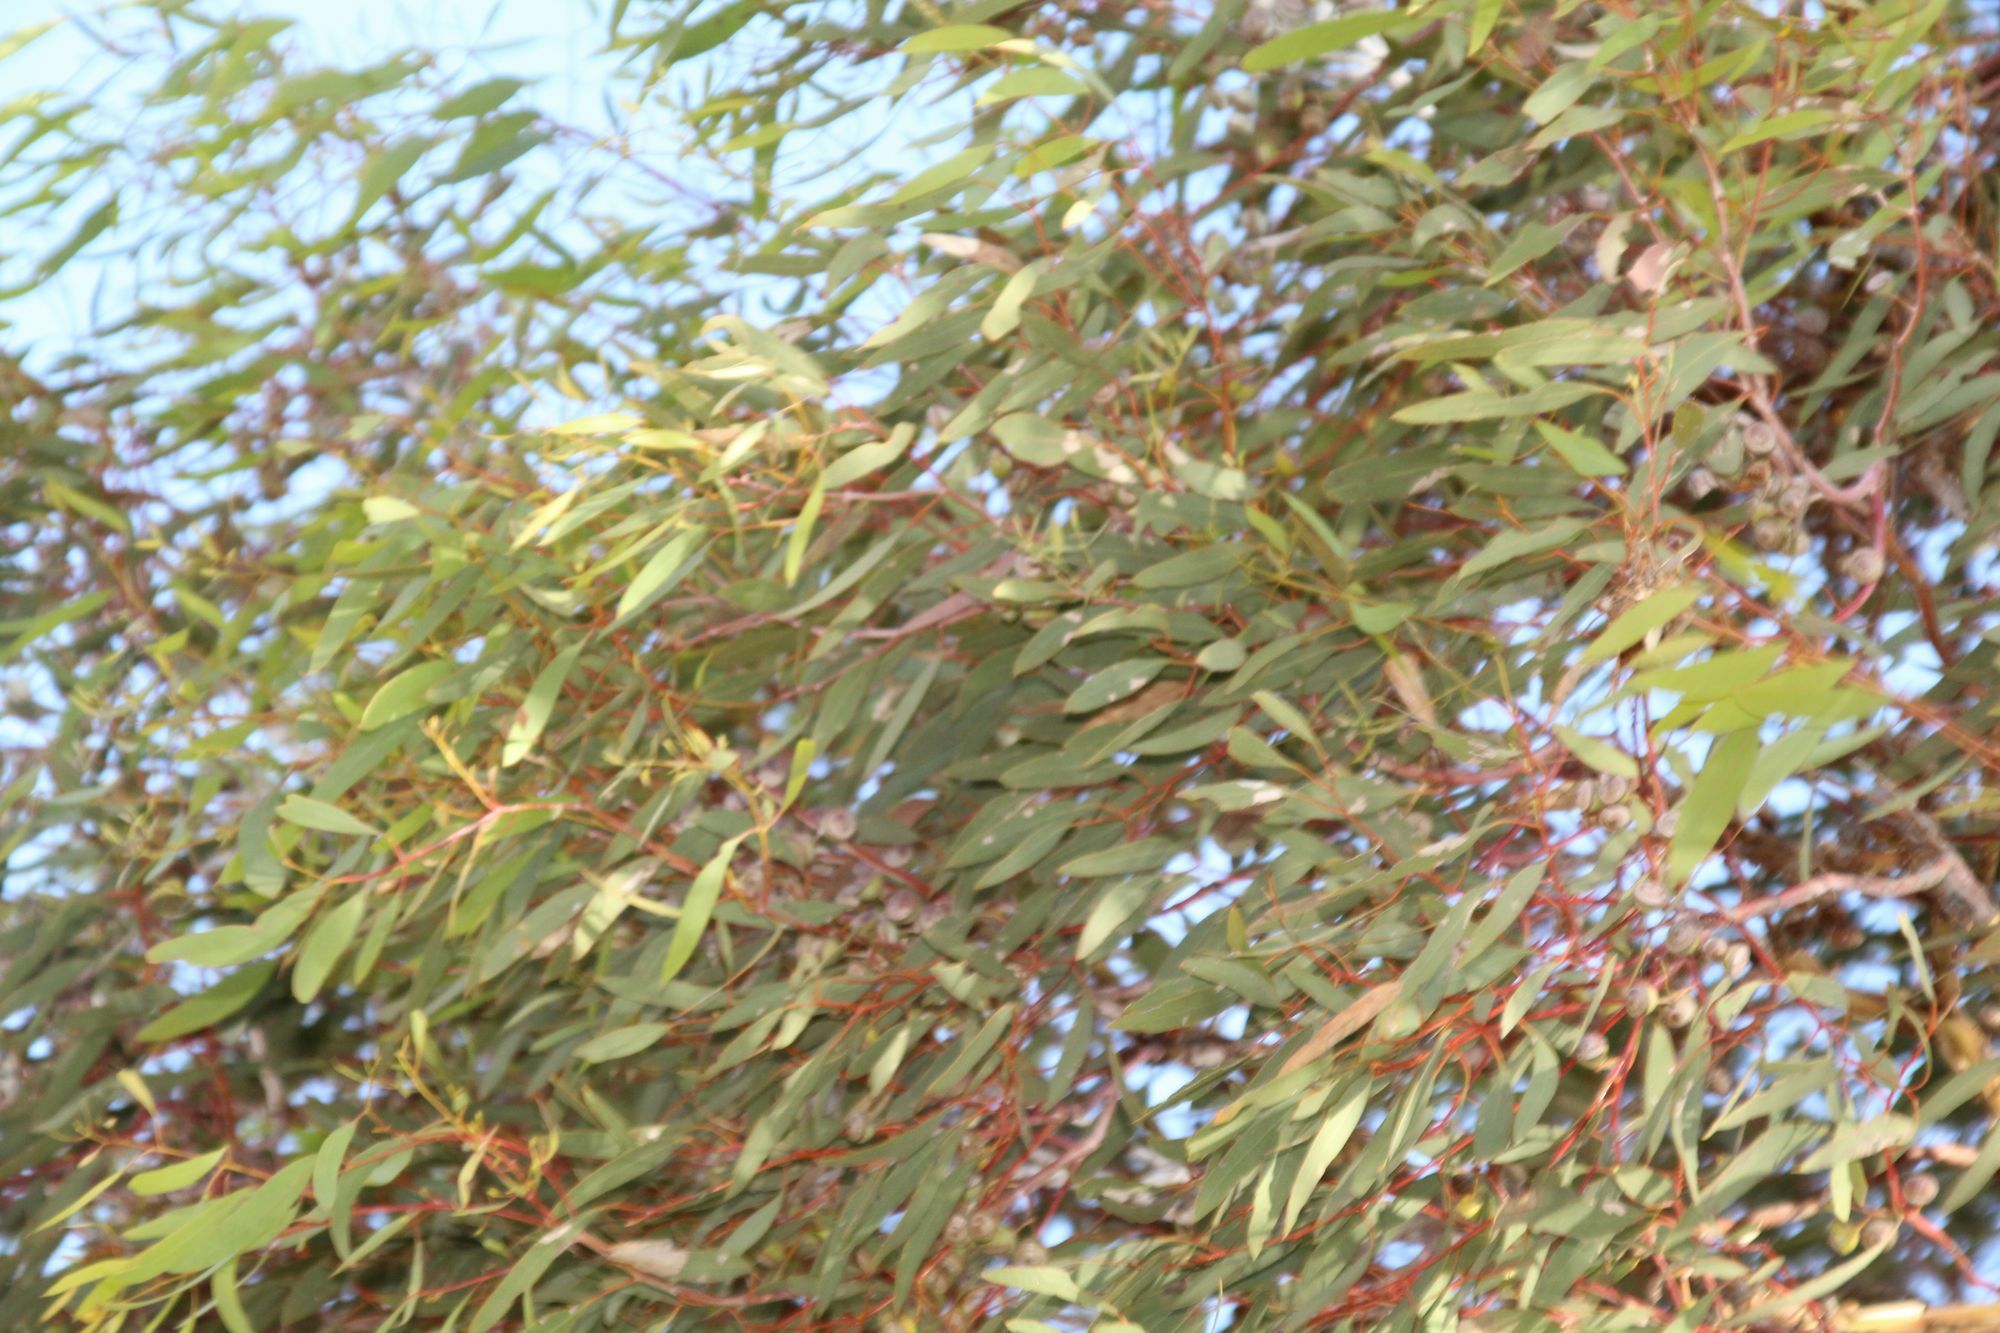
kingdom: Plantae
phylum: Tracheophyta
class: Magnoliopsida
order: Myrtales
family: Myrtaceae
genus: Eucalyptus
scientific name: Eucalyptus crucis
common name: Southern cross silver mallee
